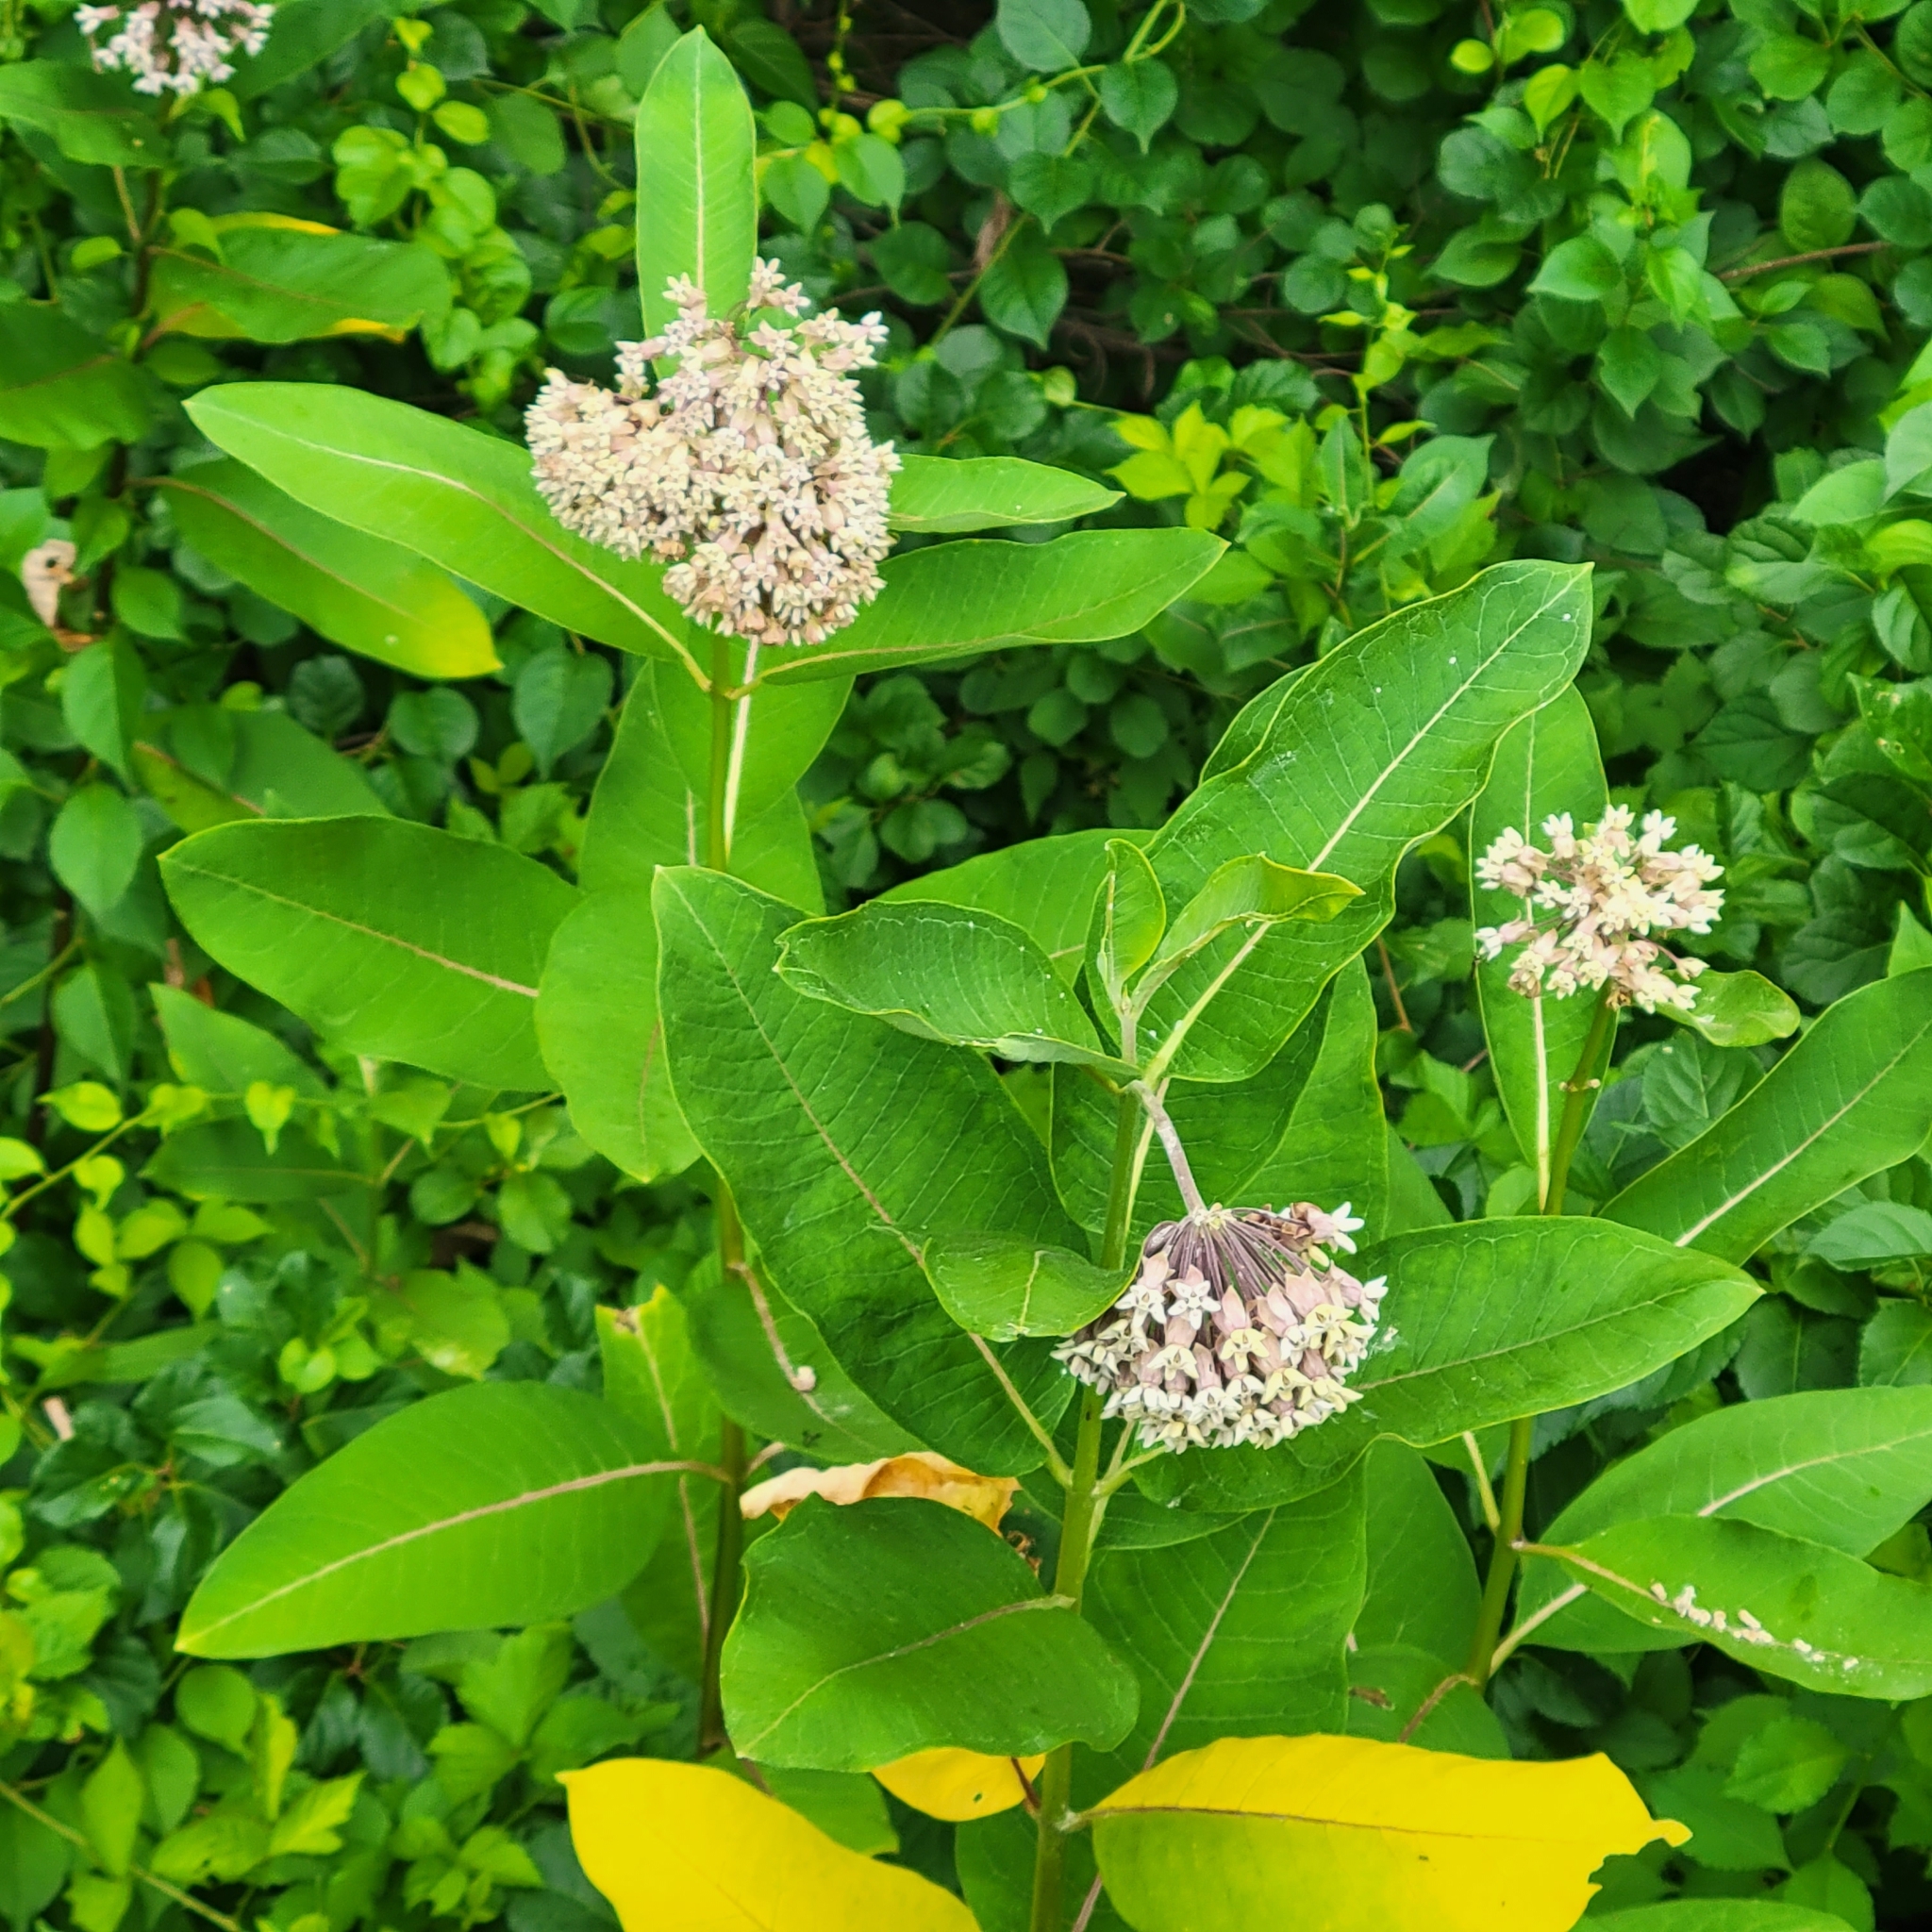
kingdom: Plantae
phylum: Tracheophyta
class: Magnoliopsida
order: Gentianales
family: Apocynaceae
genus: Asclepias
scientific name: Asclepias syriaca
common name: Common milkweed
